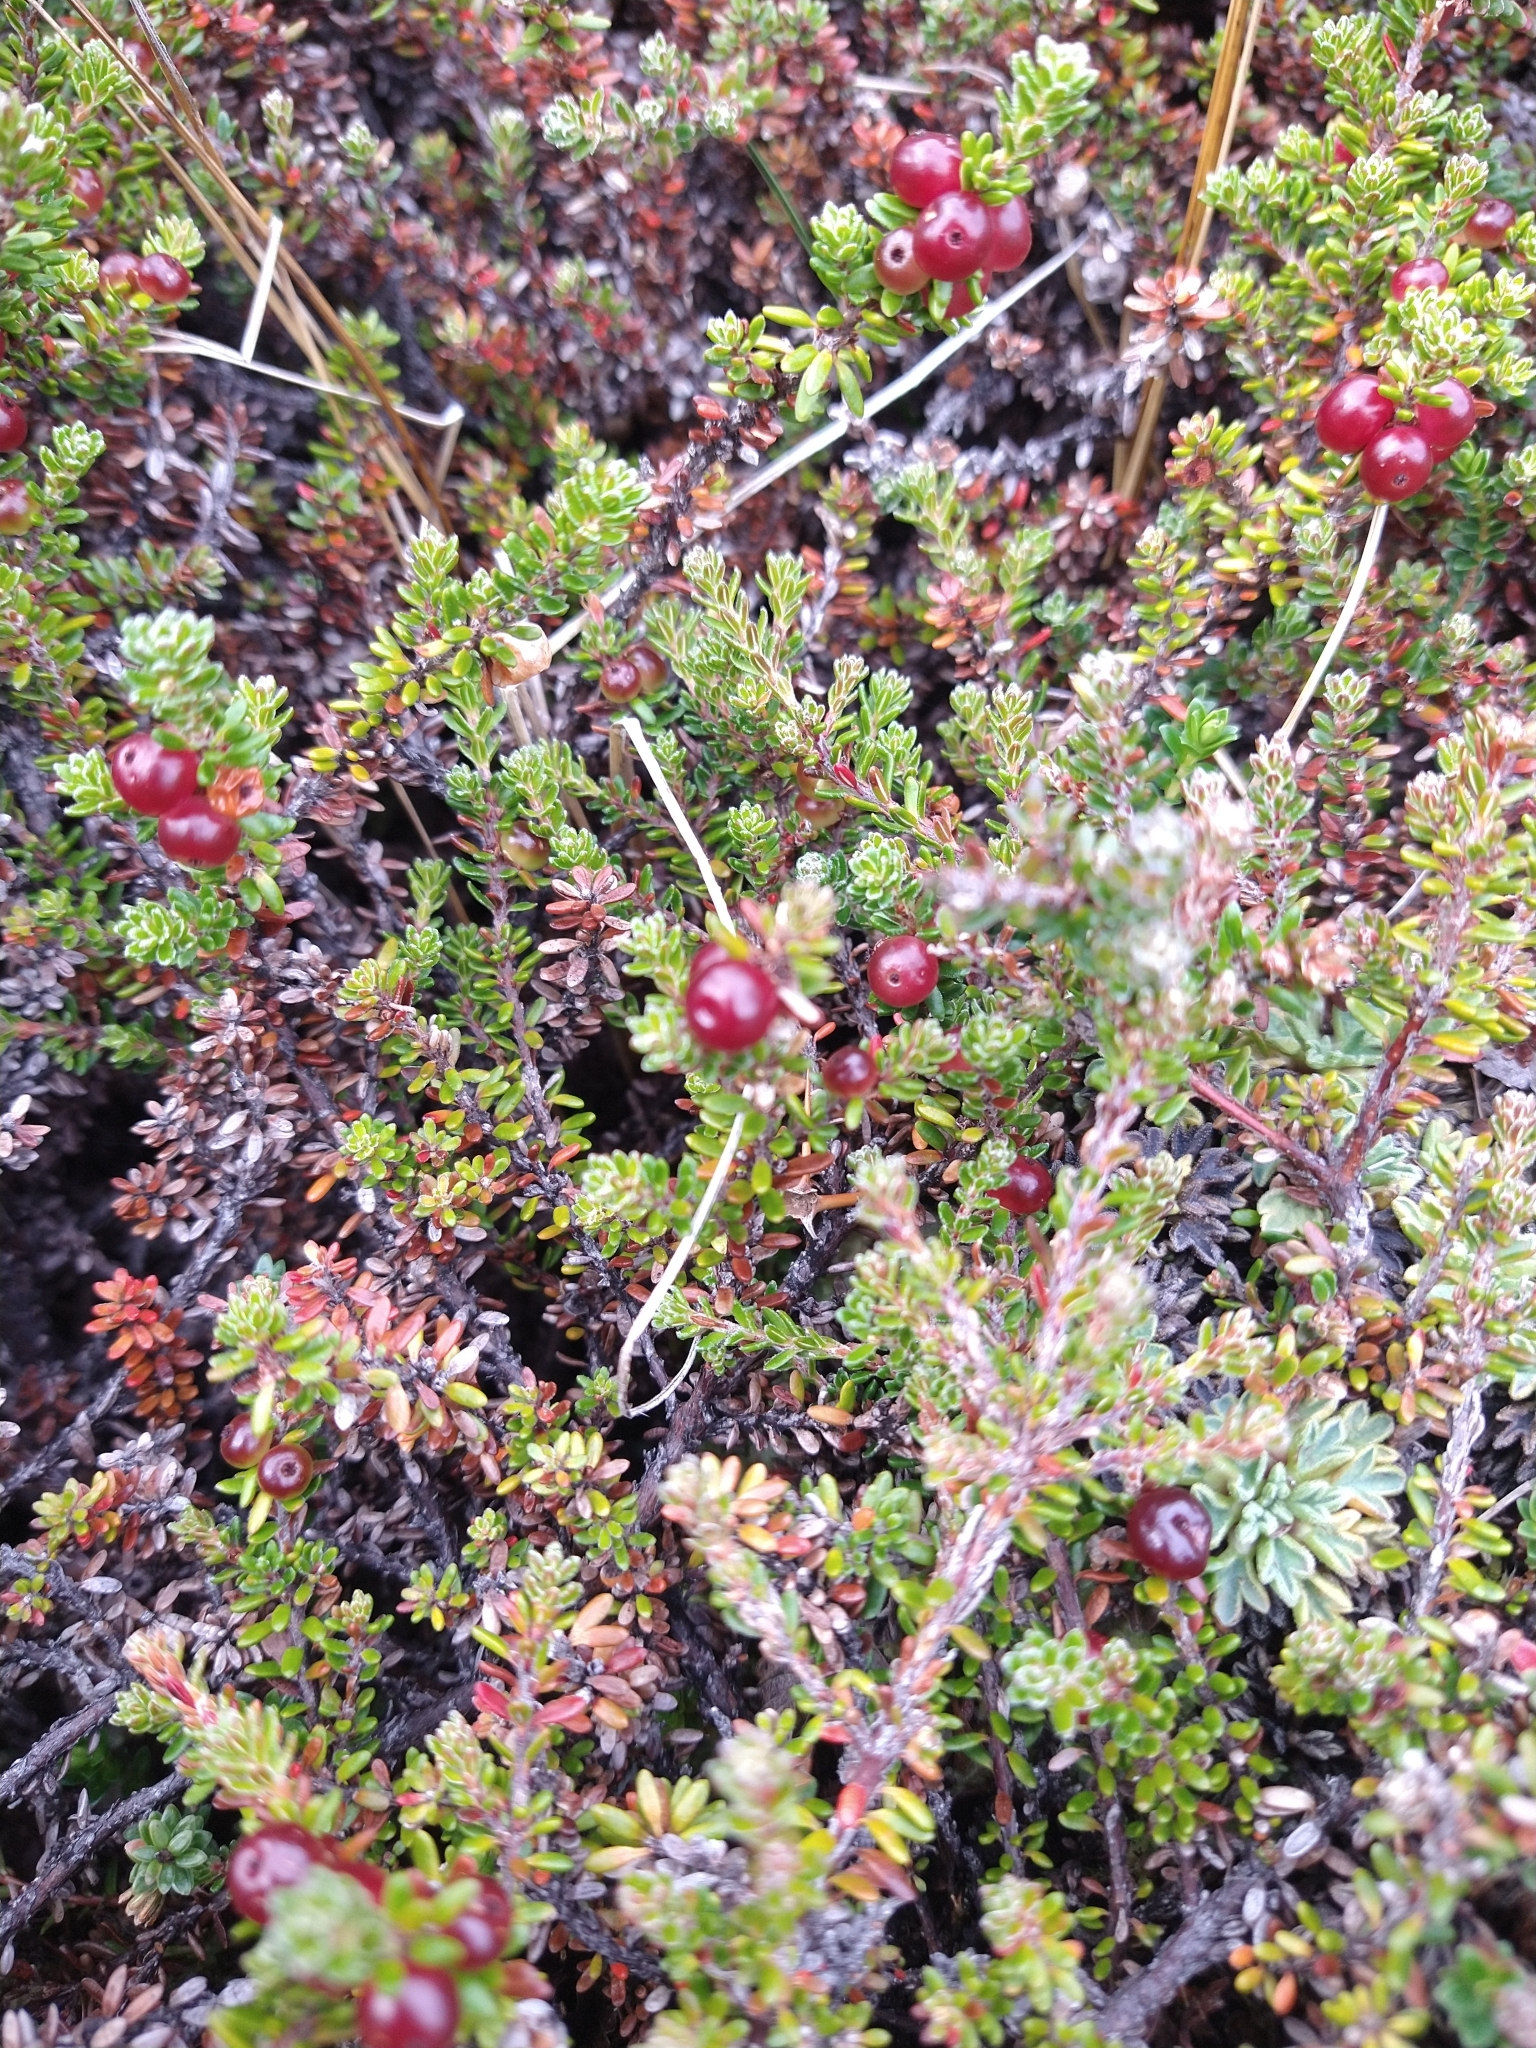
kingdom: Plantae
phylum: Tracheophyta
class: Magnoliopsida
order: Ericales
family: Ericaceae
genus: Empetrum
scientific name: Empetrum rubrum
